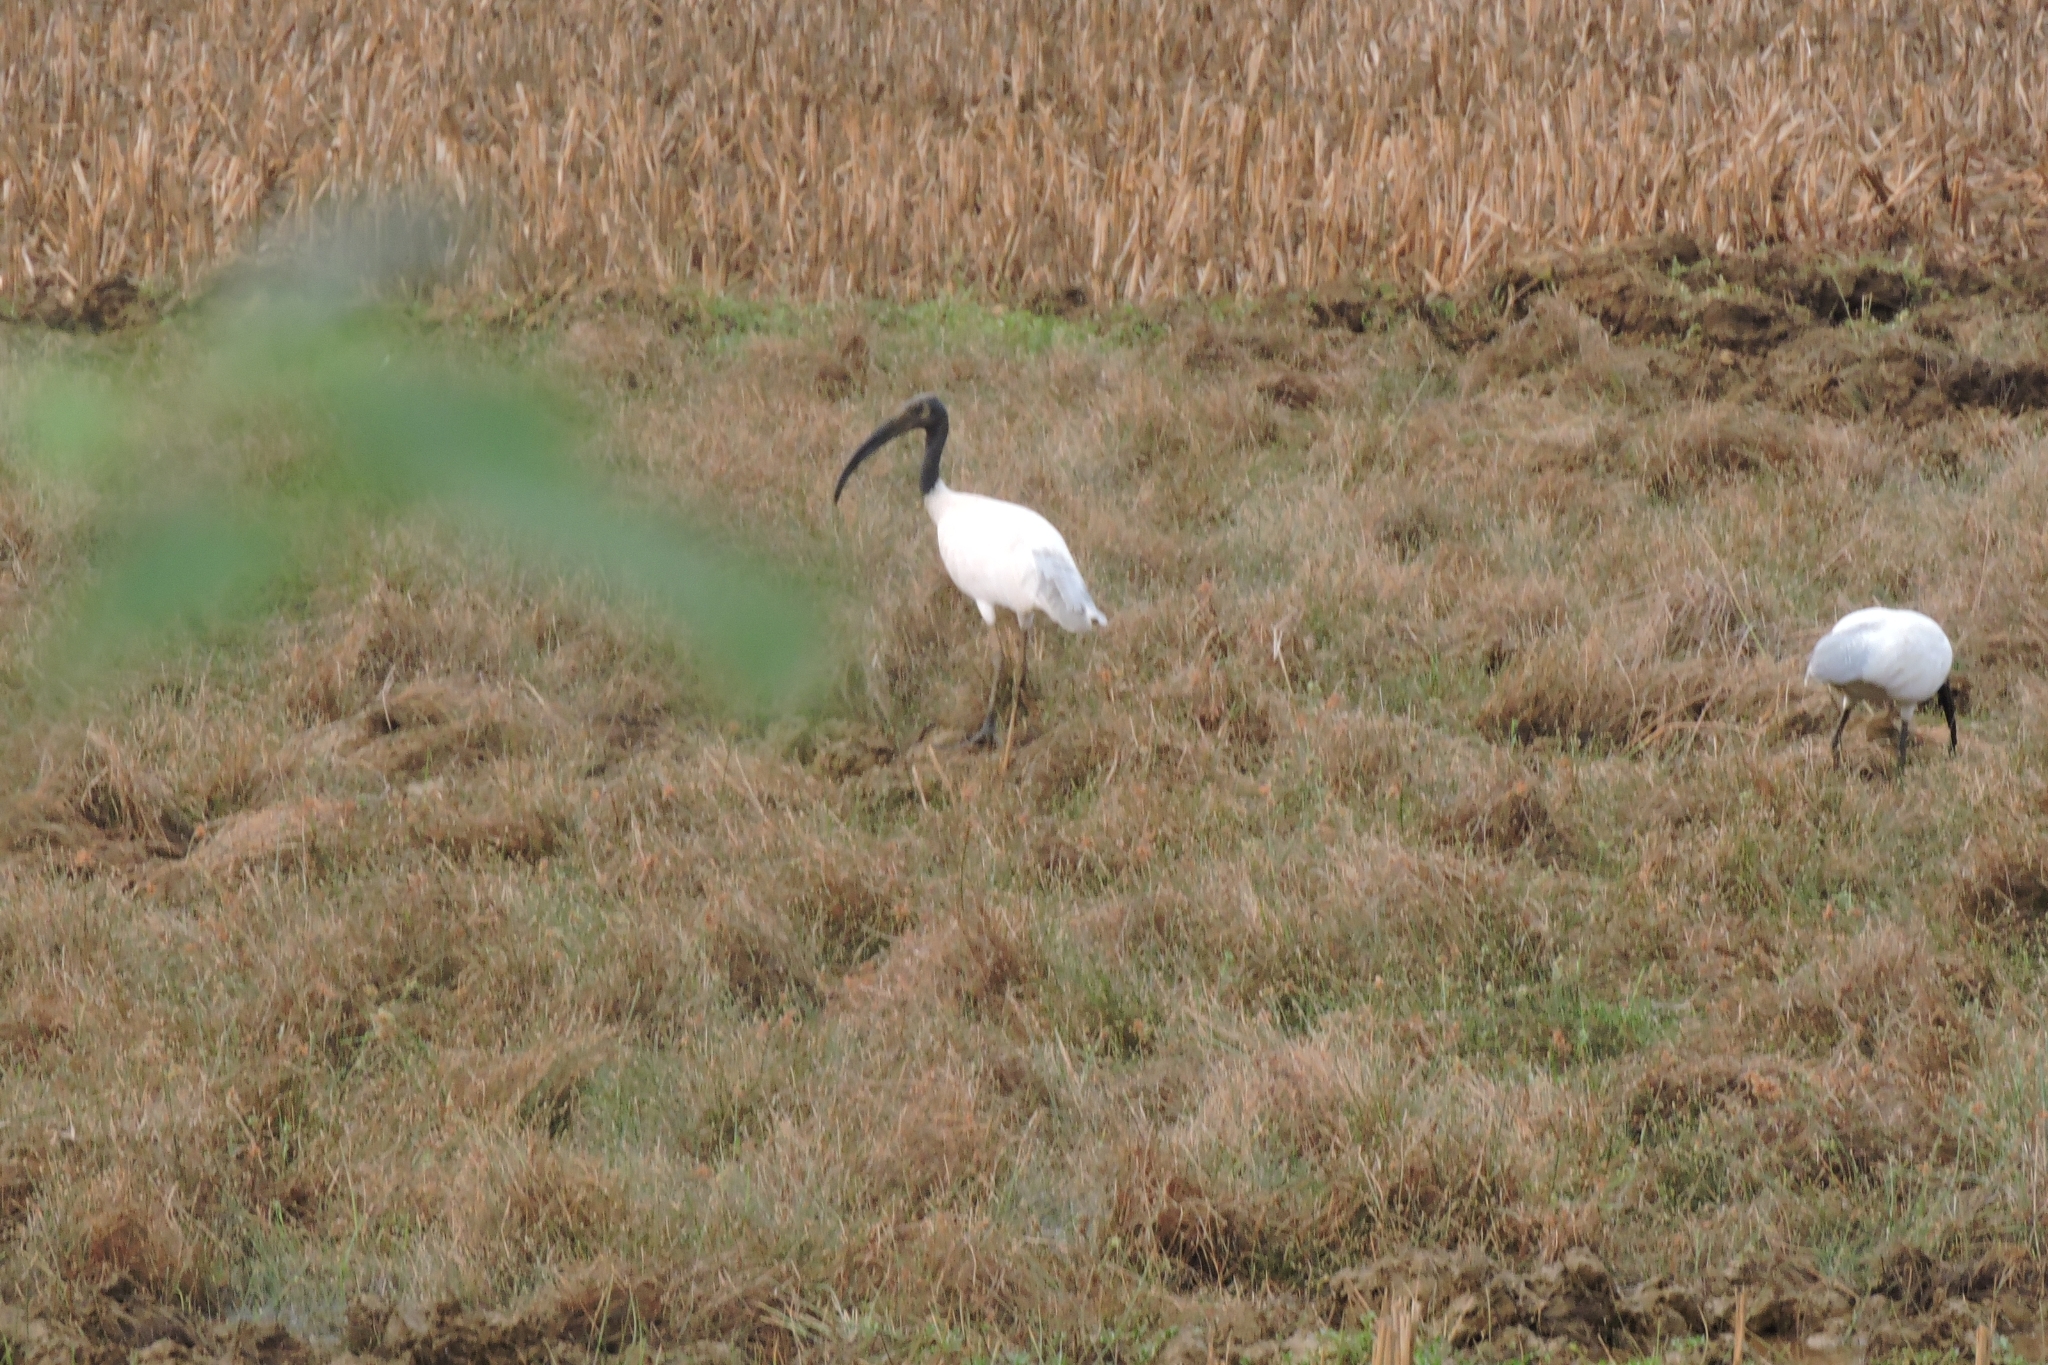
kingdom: Animalia
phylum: Chordata
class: Aves
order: Pelecaniformes
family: Threskiornithidae
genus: Threskiornis
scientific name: Threskiornis melanocephalus
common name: Black-headed ibis
